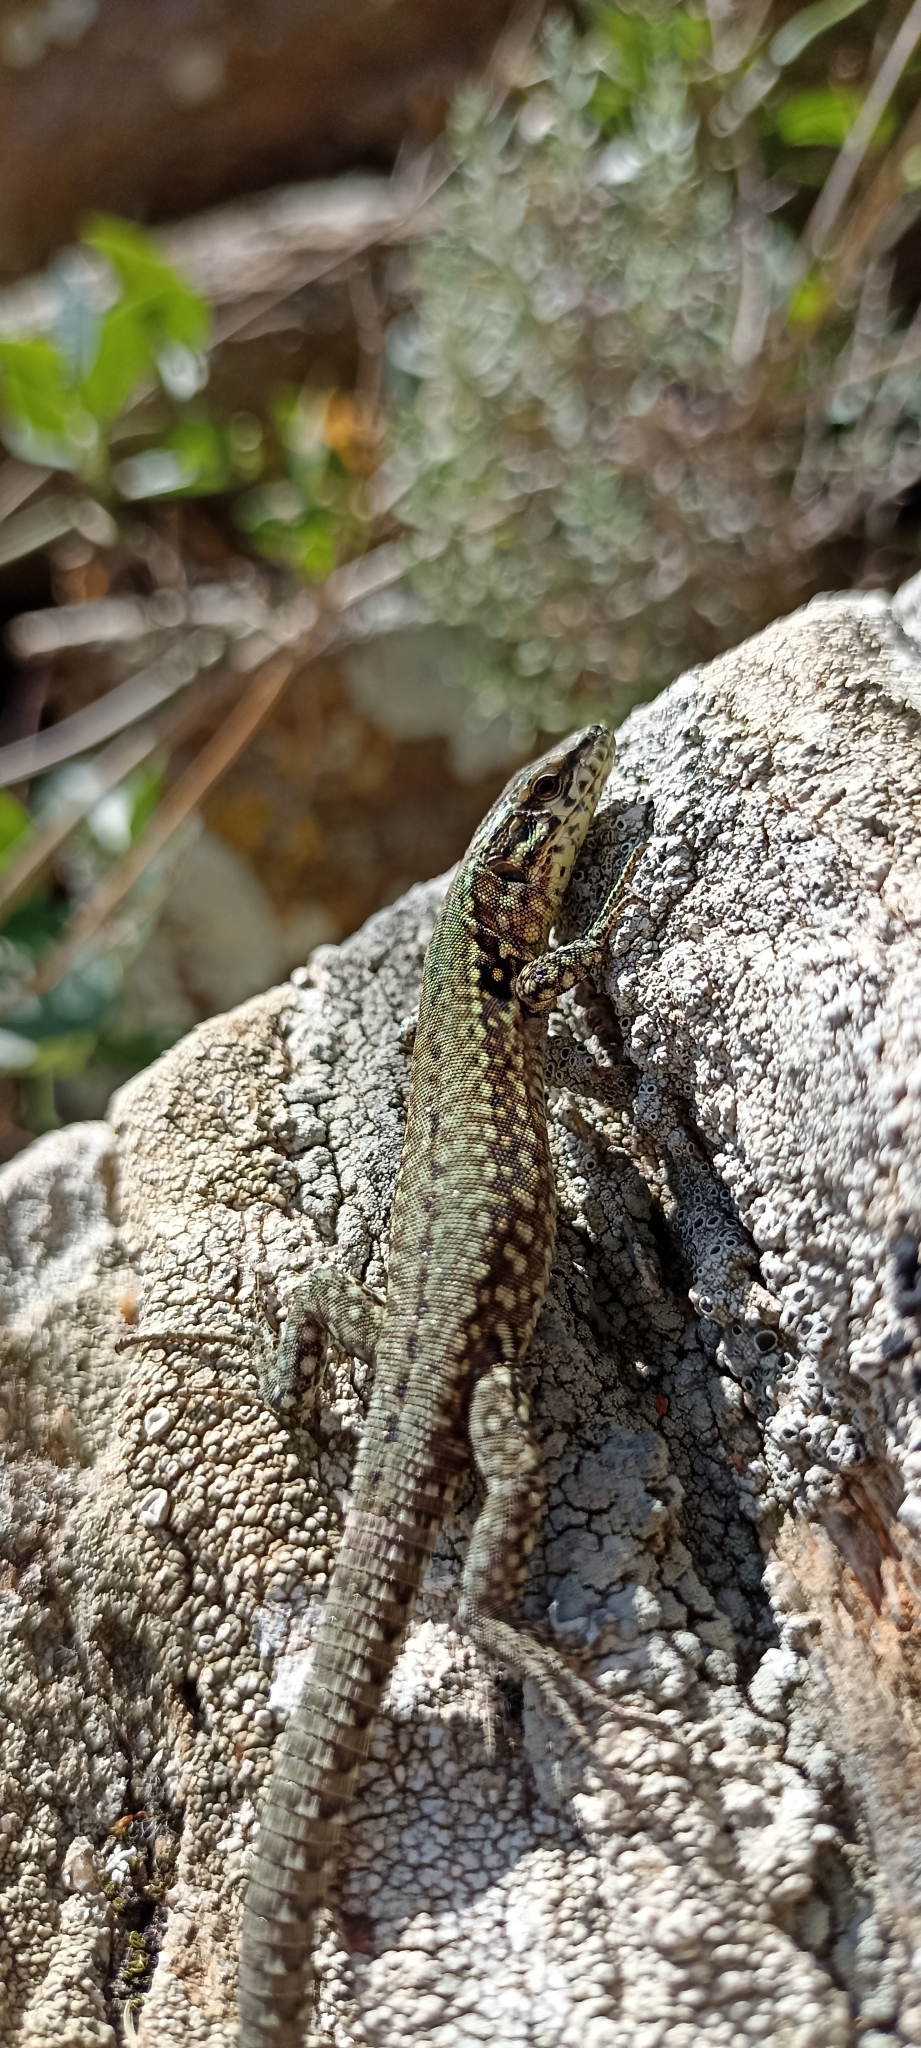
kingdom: Animalia
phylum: Chordata
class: Squamata
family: Lacertidae
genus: Podarcis
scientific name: Podarcis muralis
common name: Common wall lizard
